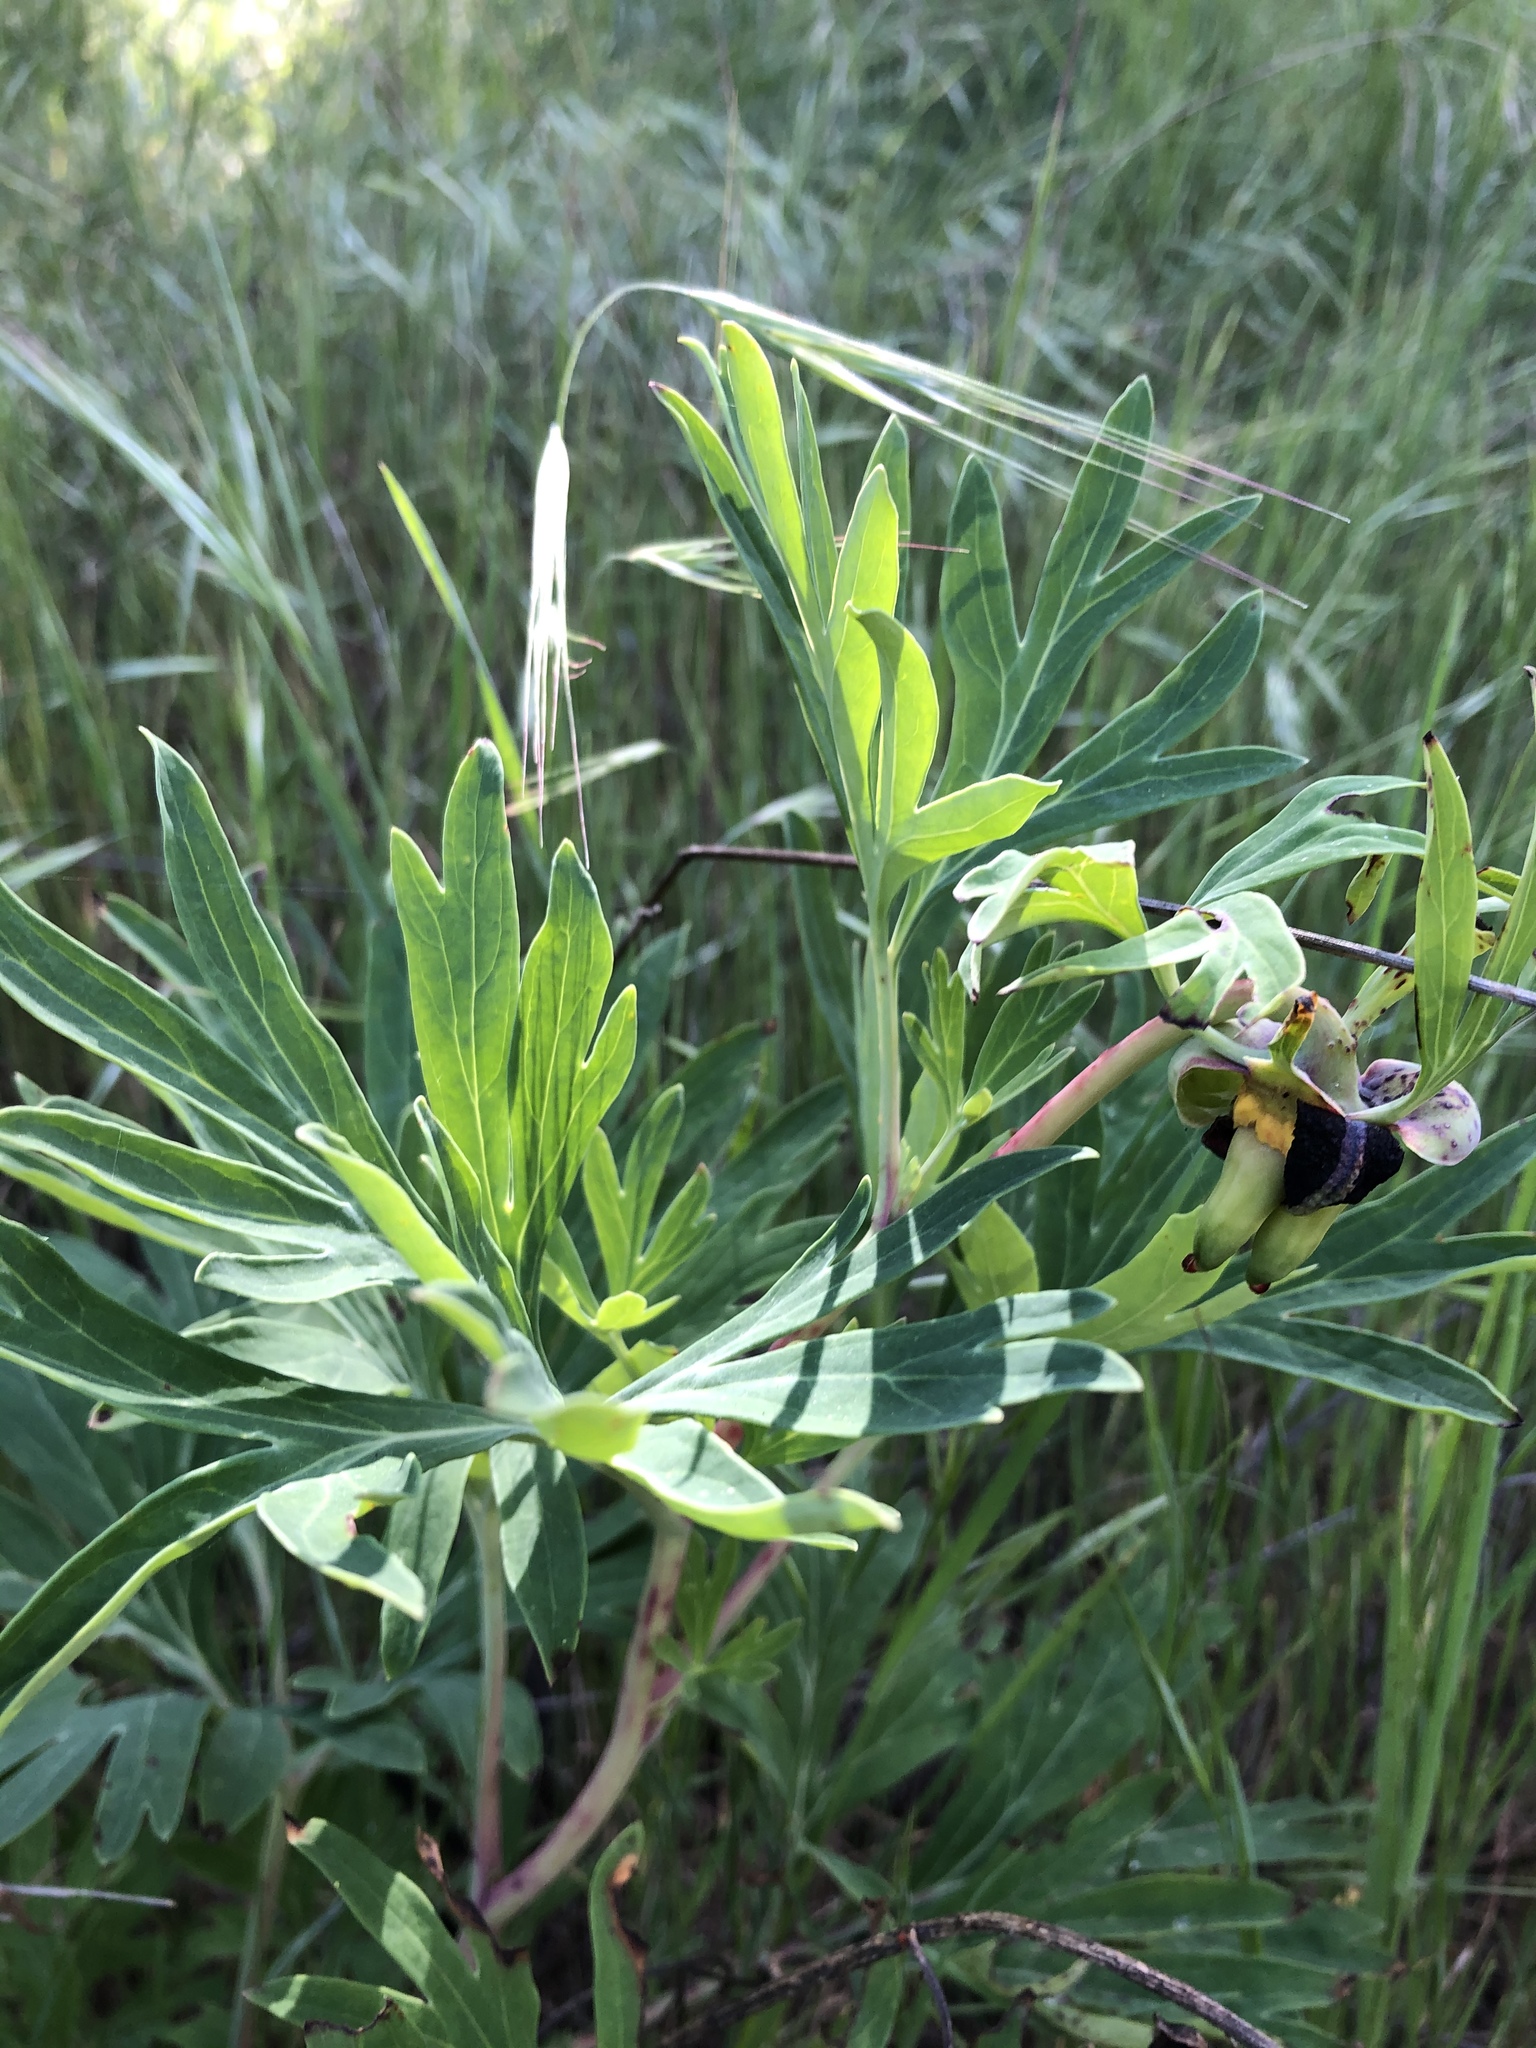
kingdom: Plantae
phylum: Tracheophyta
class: Magnoliopsida
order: Saxifragales
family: Paeoniaceae
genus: Paeonia
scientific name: Paeonia californica
